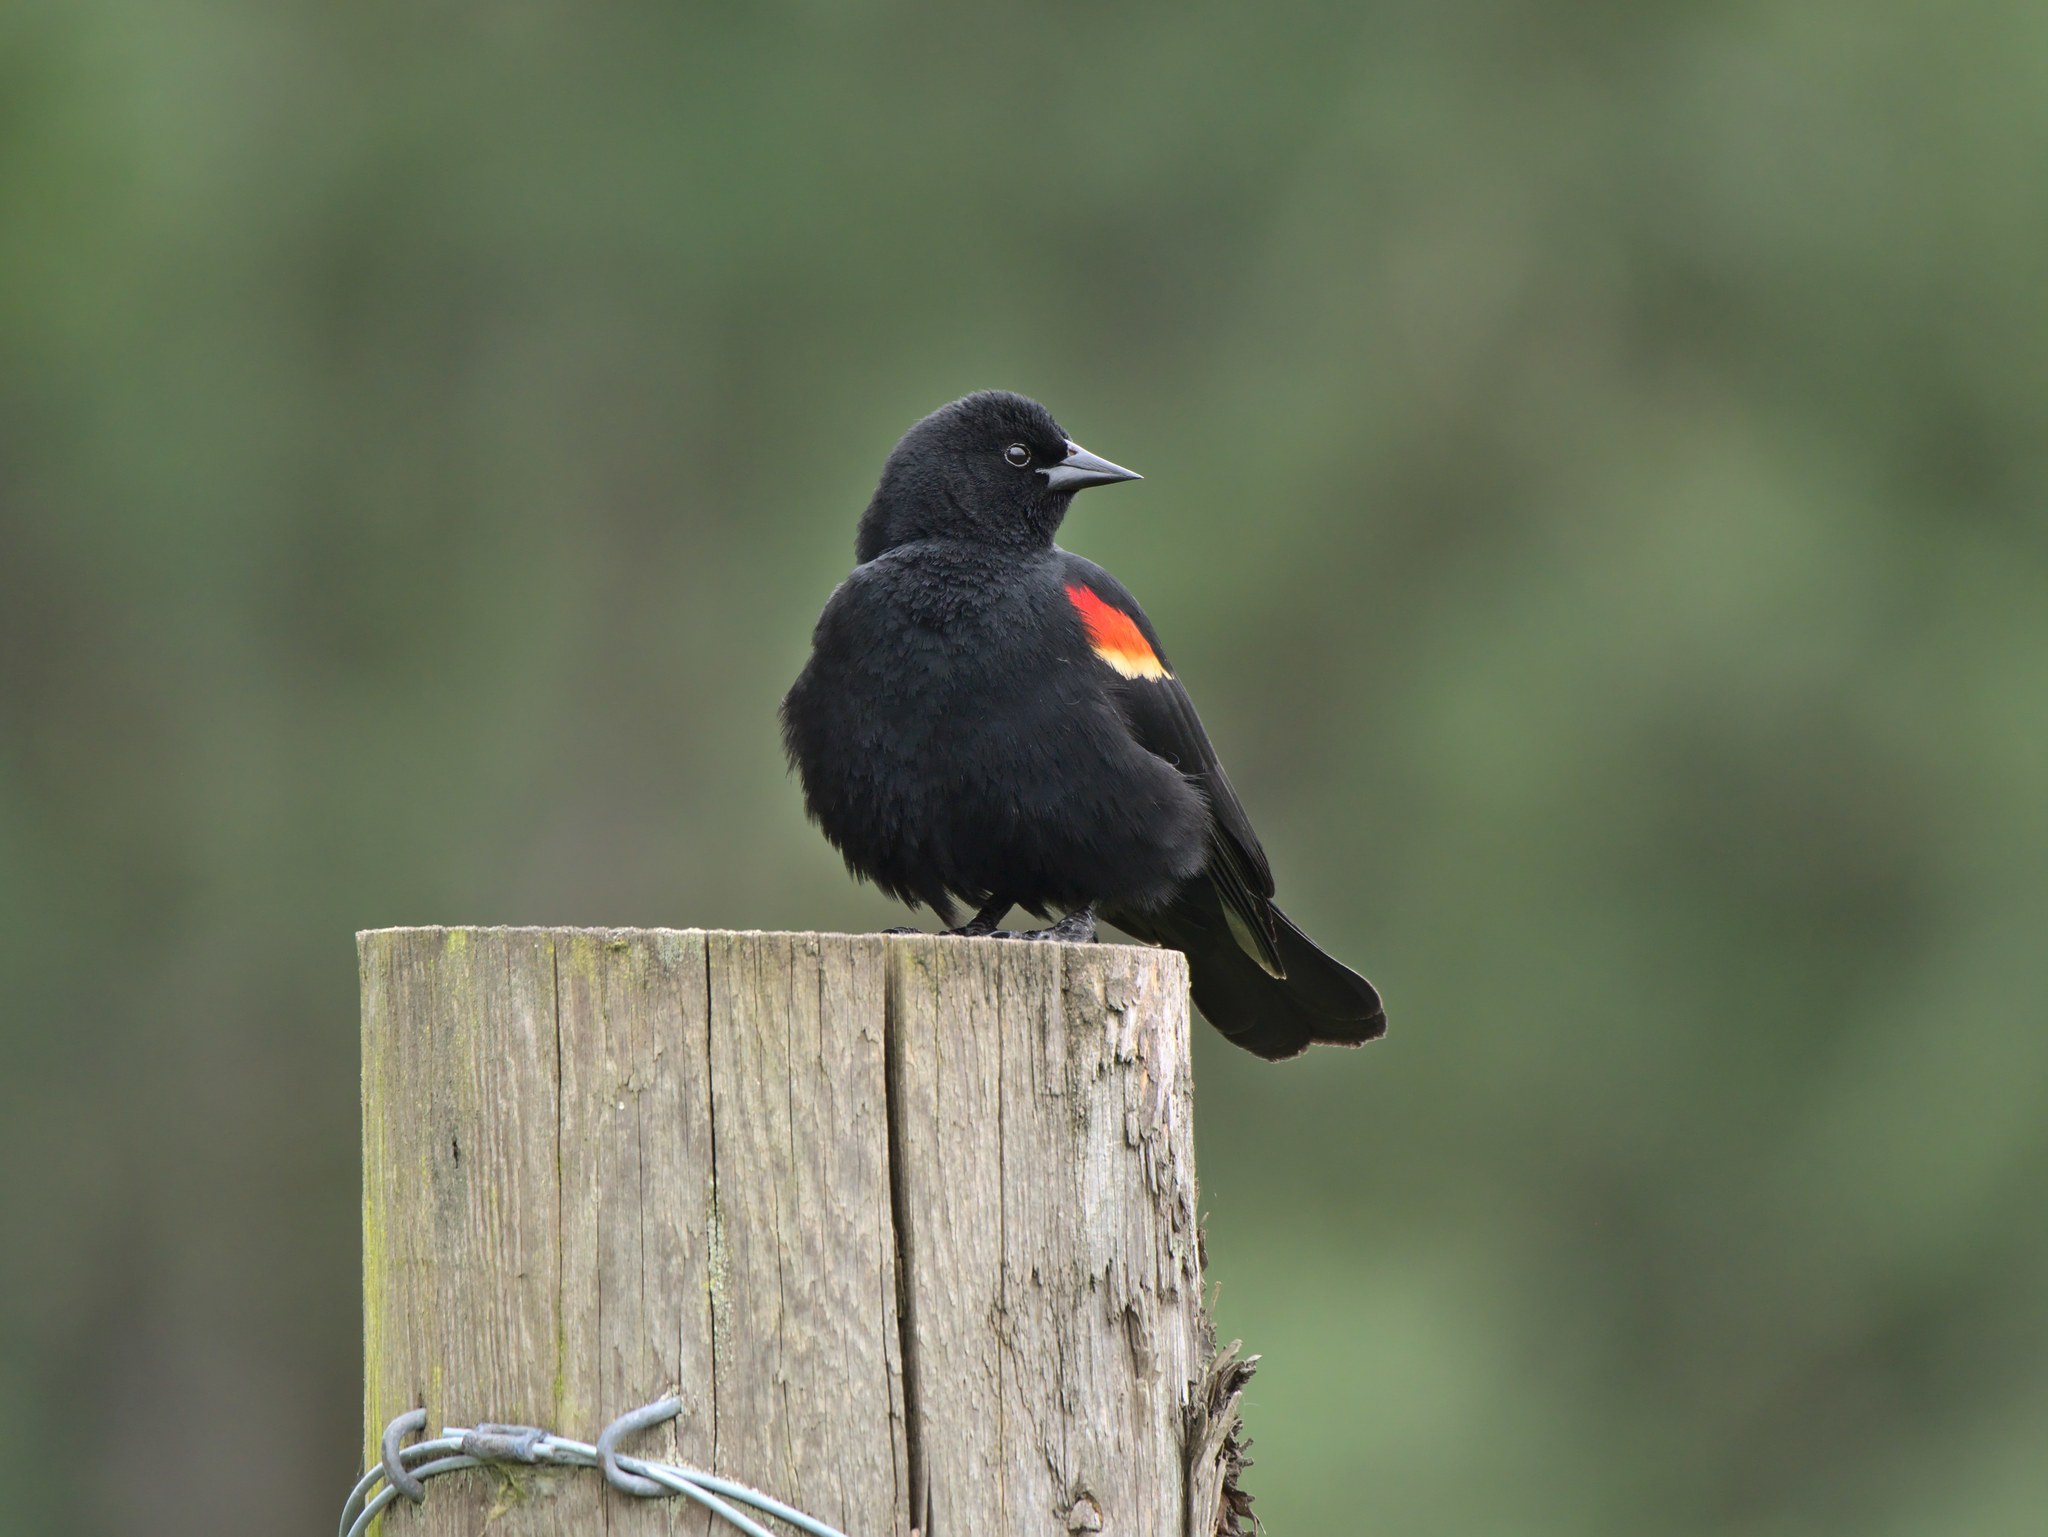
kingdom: Animalia
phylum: Chordata
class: Aves
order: Passeriformes
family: Icteridae
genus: Agelaius
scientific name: Agelaius phoeniceus
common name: Red-winged blackbird
